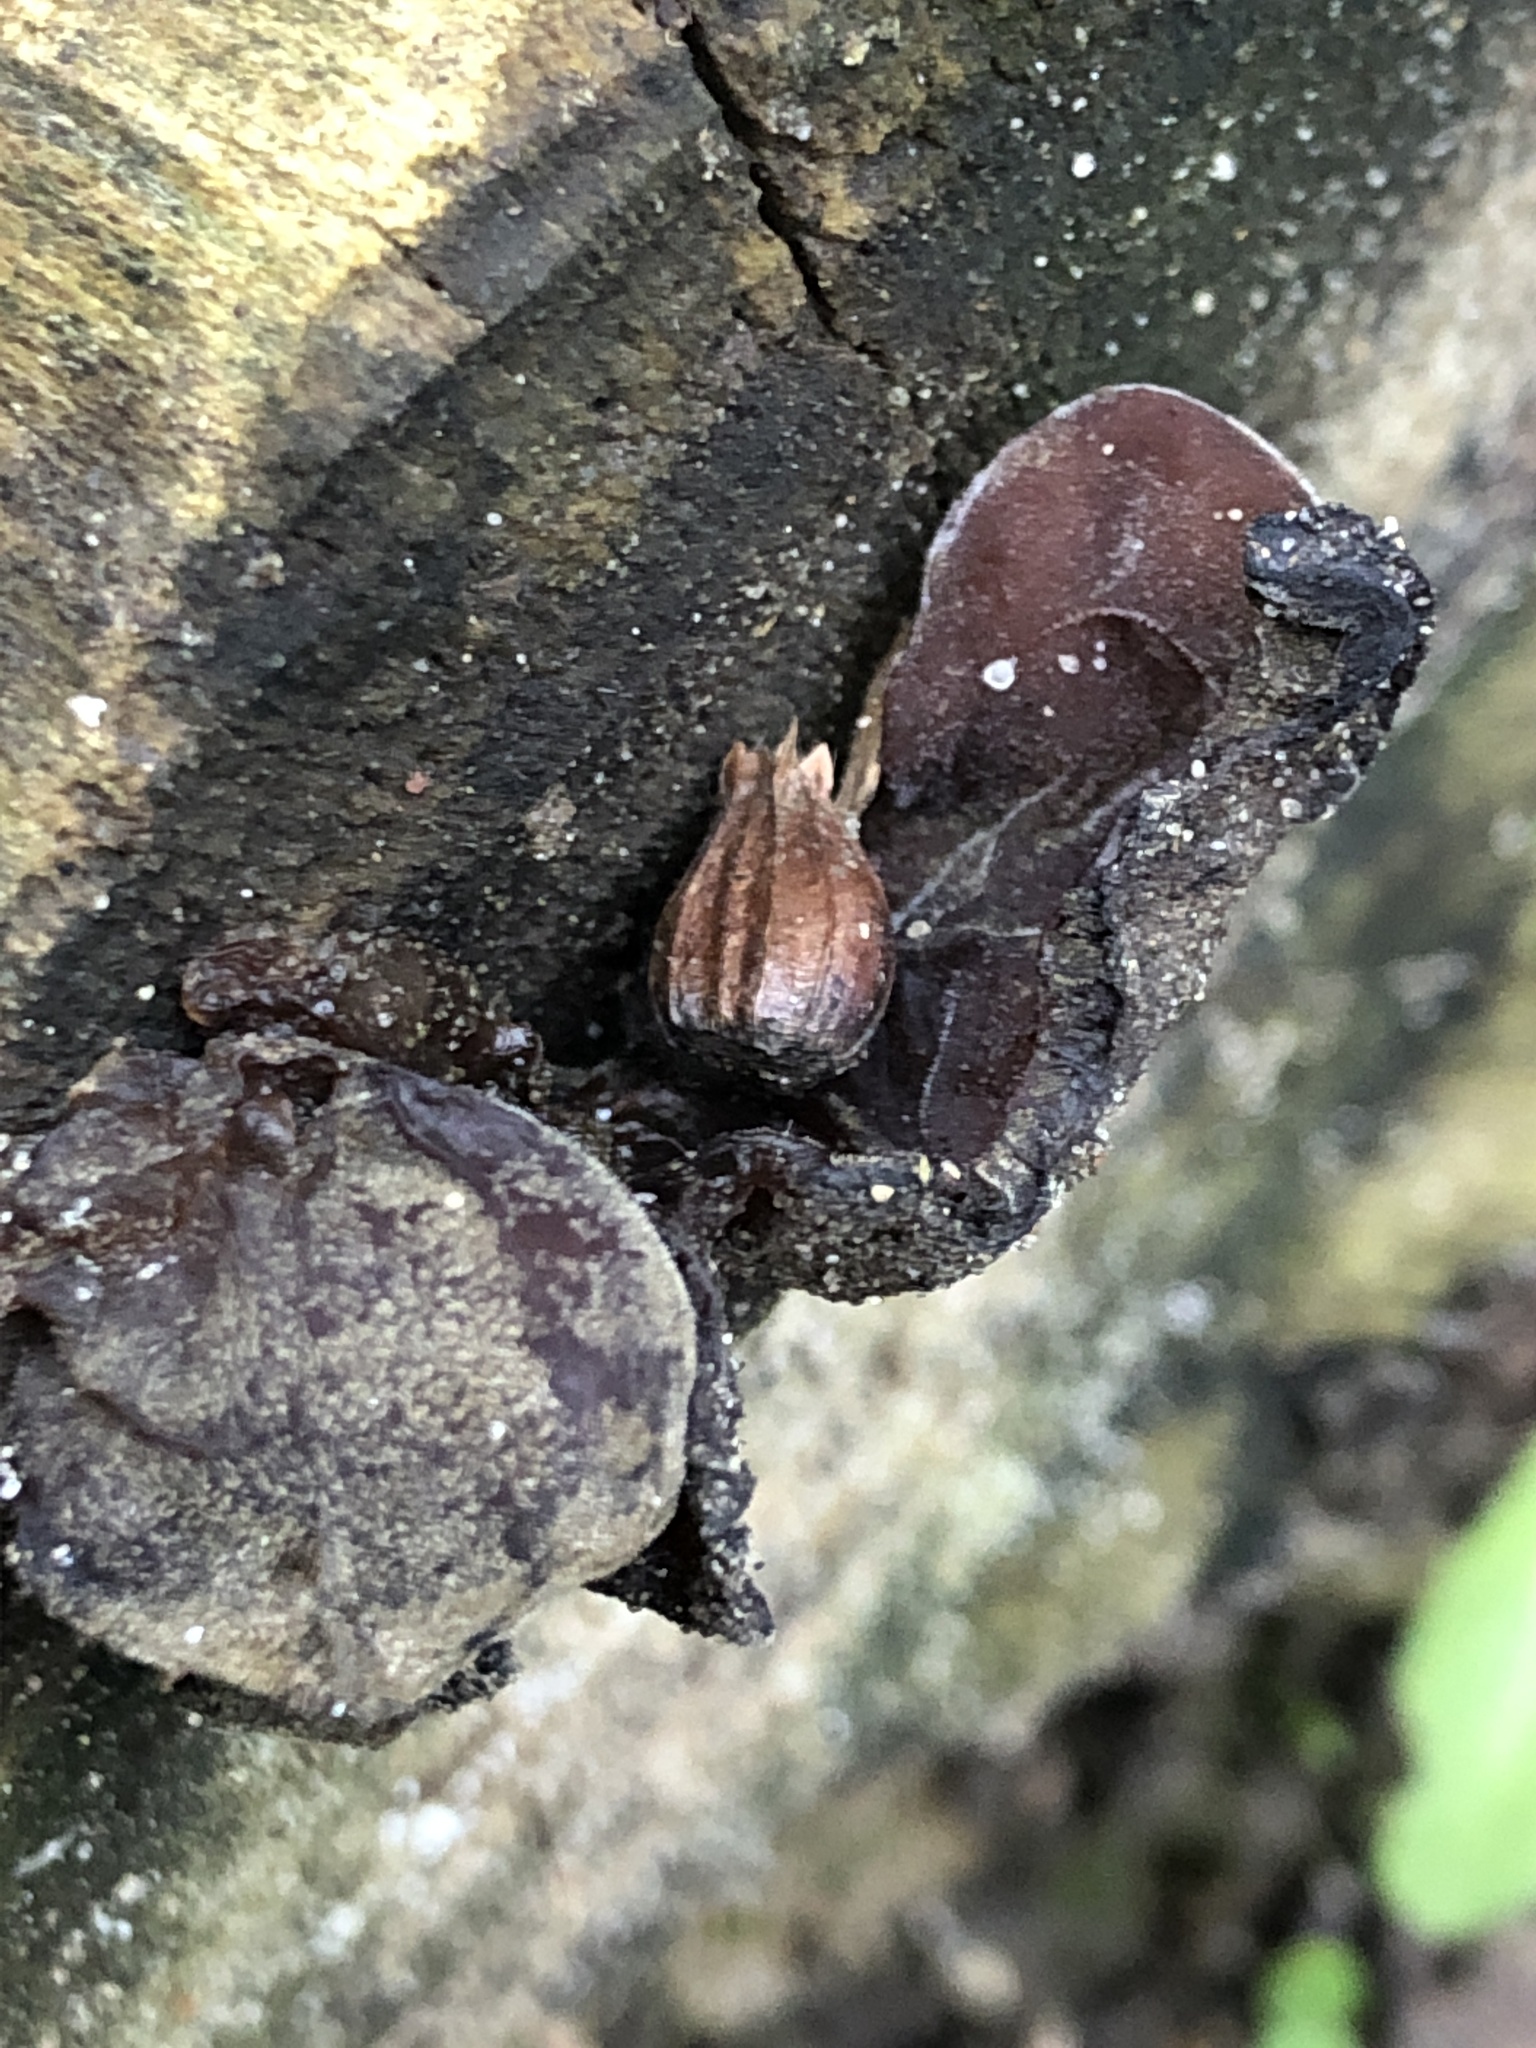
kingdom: Fungi
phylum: Basidiomycota
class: Agaricomycetes
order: Auriculariales
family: Auriculariaceae
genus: Auricularia
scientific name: Auricularia auricula-judae
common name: Jelly ear
